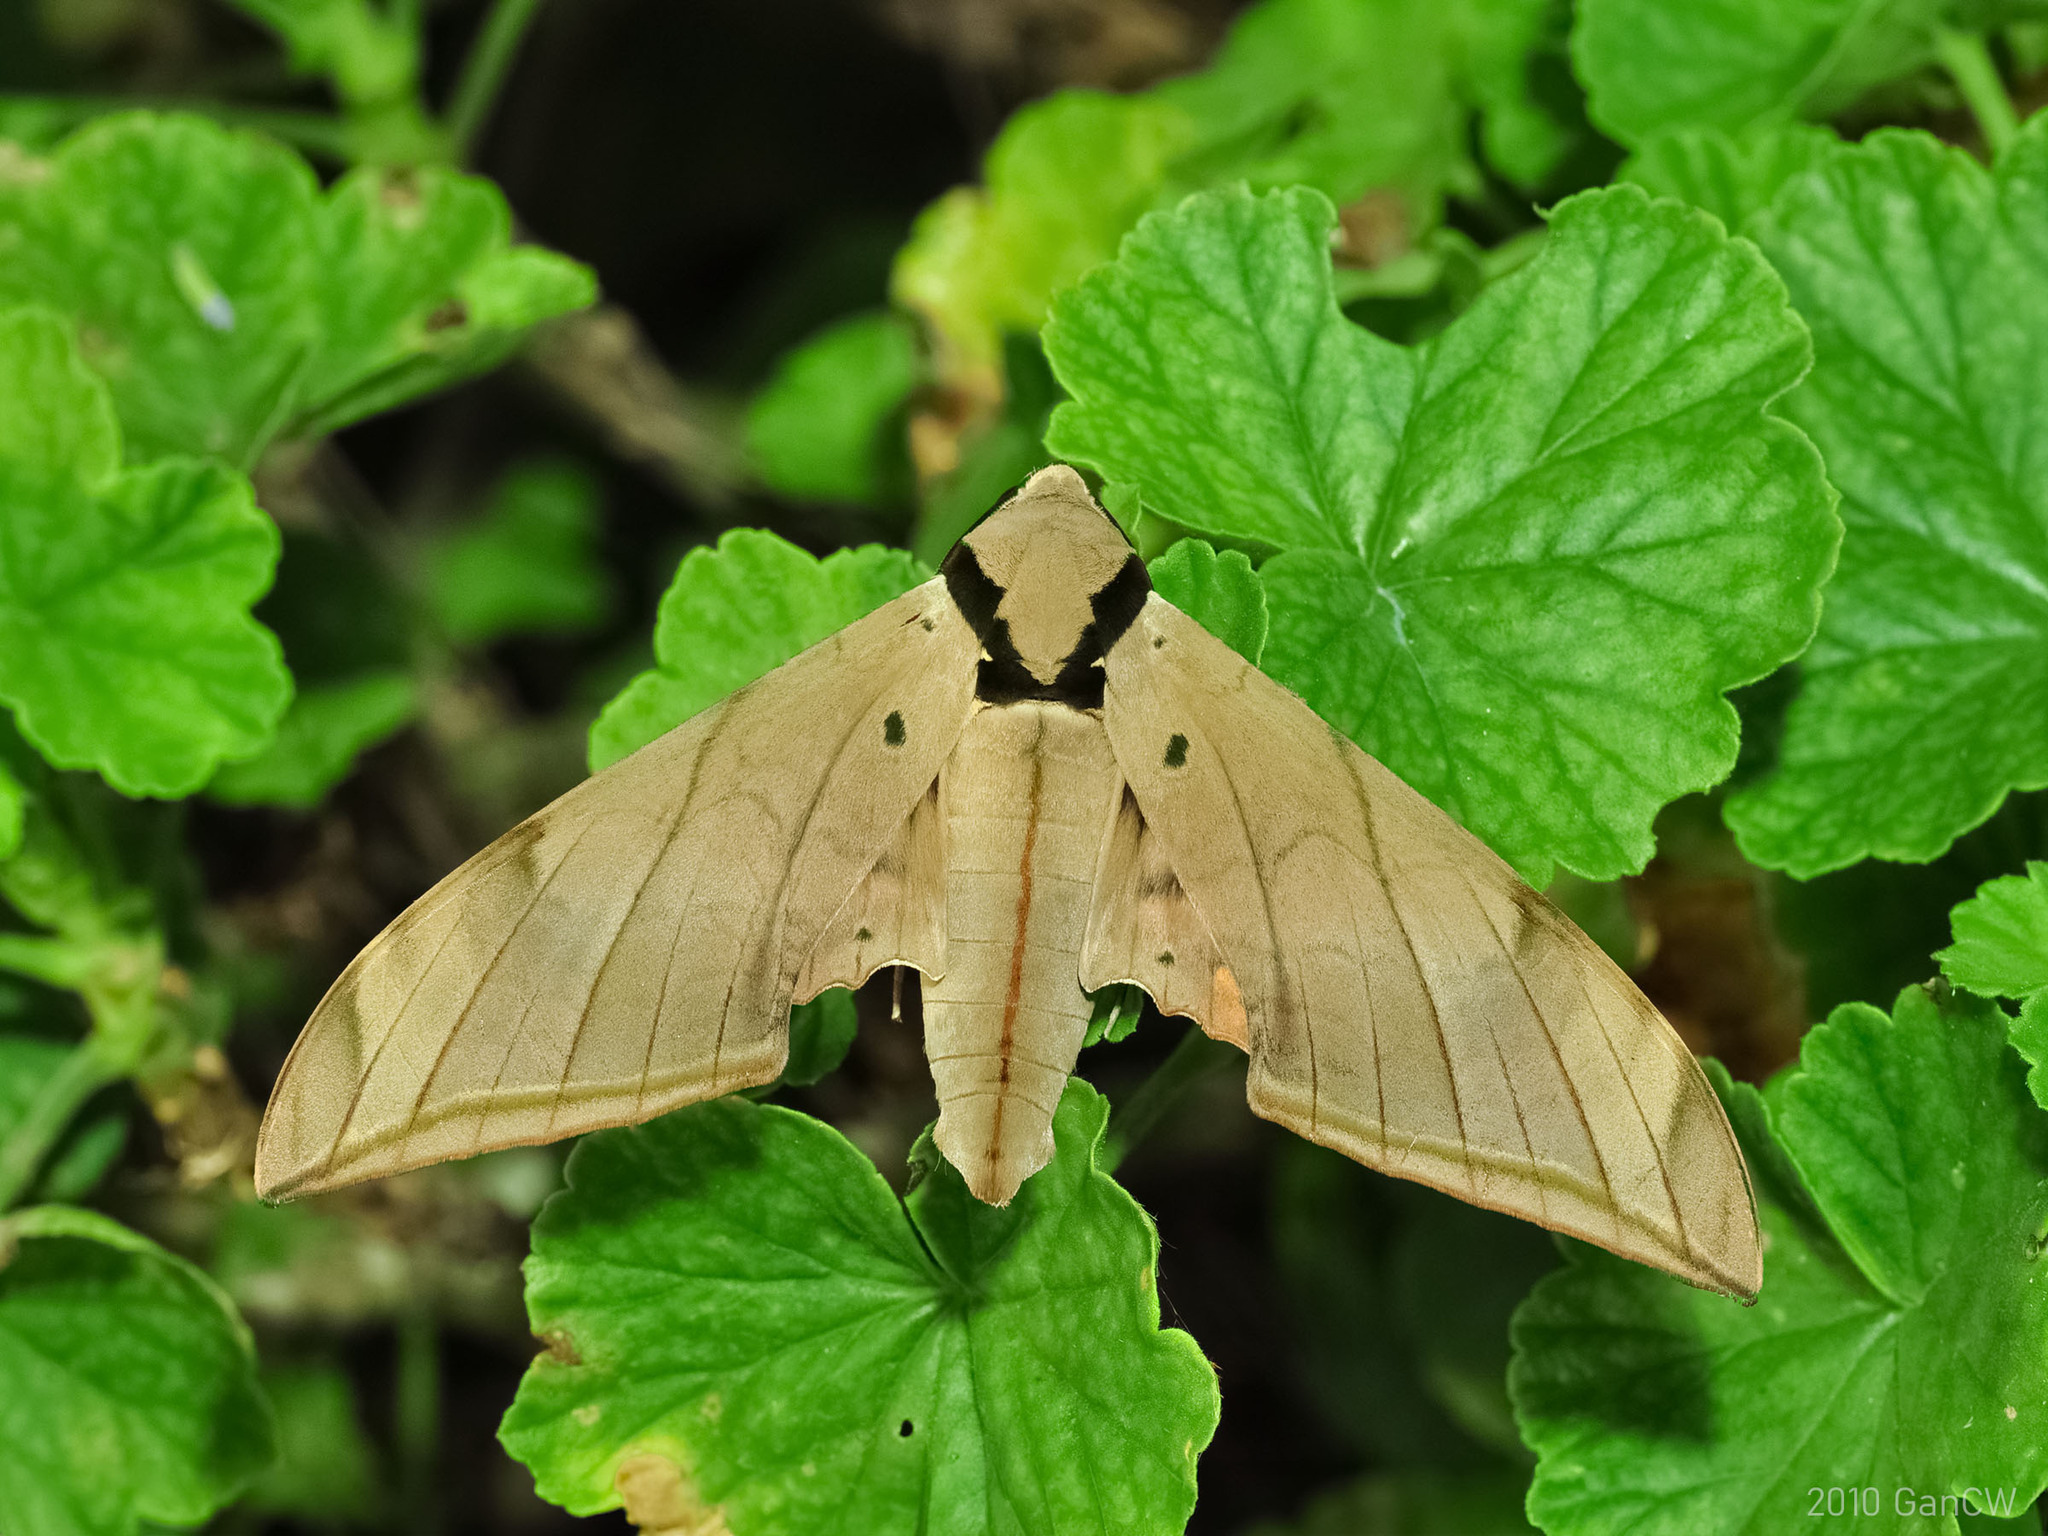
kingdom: Animalia
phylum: Arthropoda
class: Insecta
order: Lepidoptera
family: Sphingidae
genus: Ambulyx
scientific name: Ambulyx substrigilis
